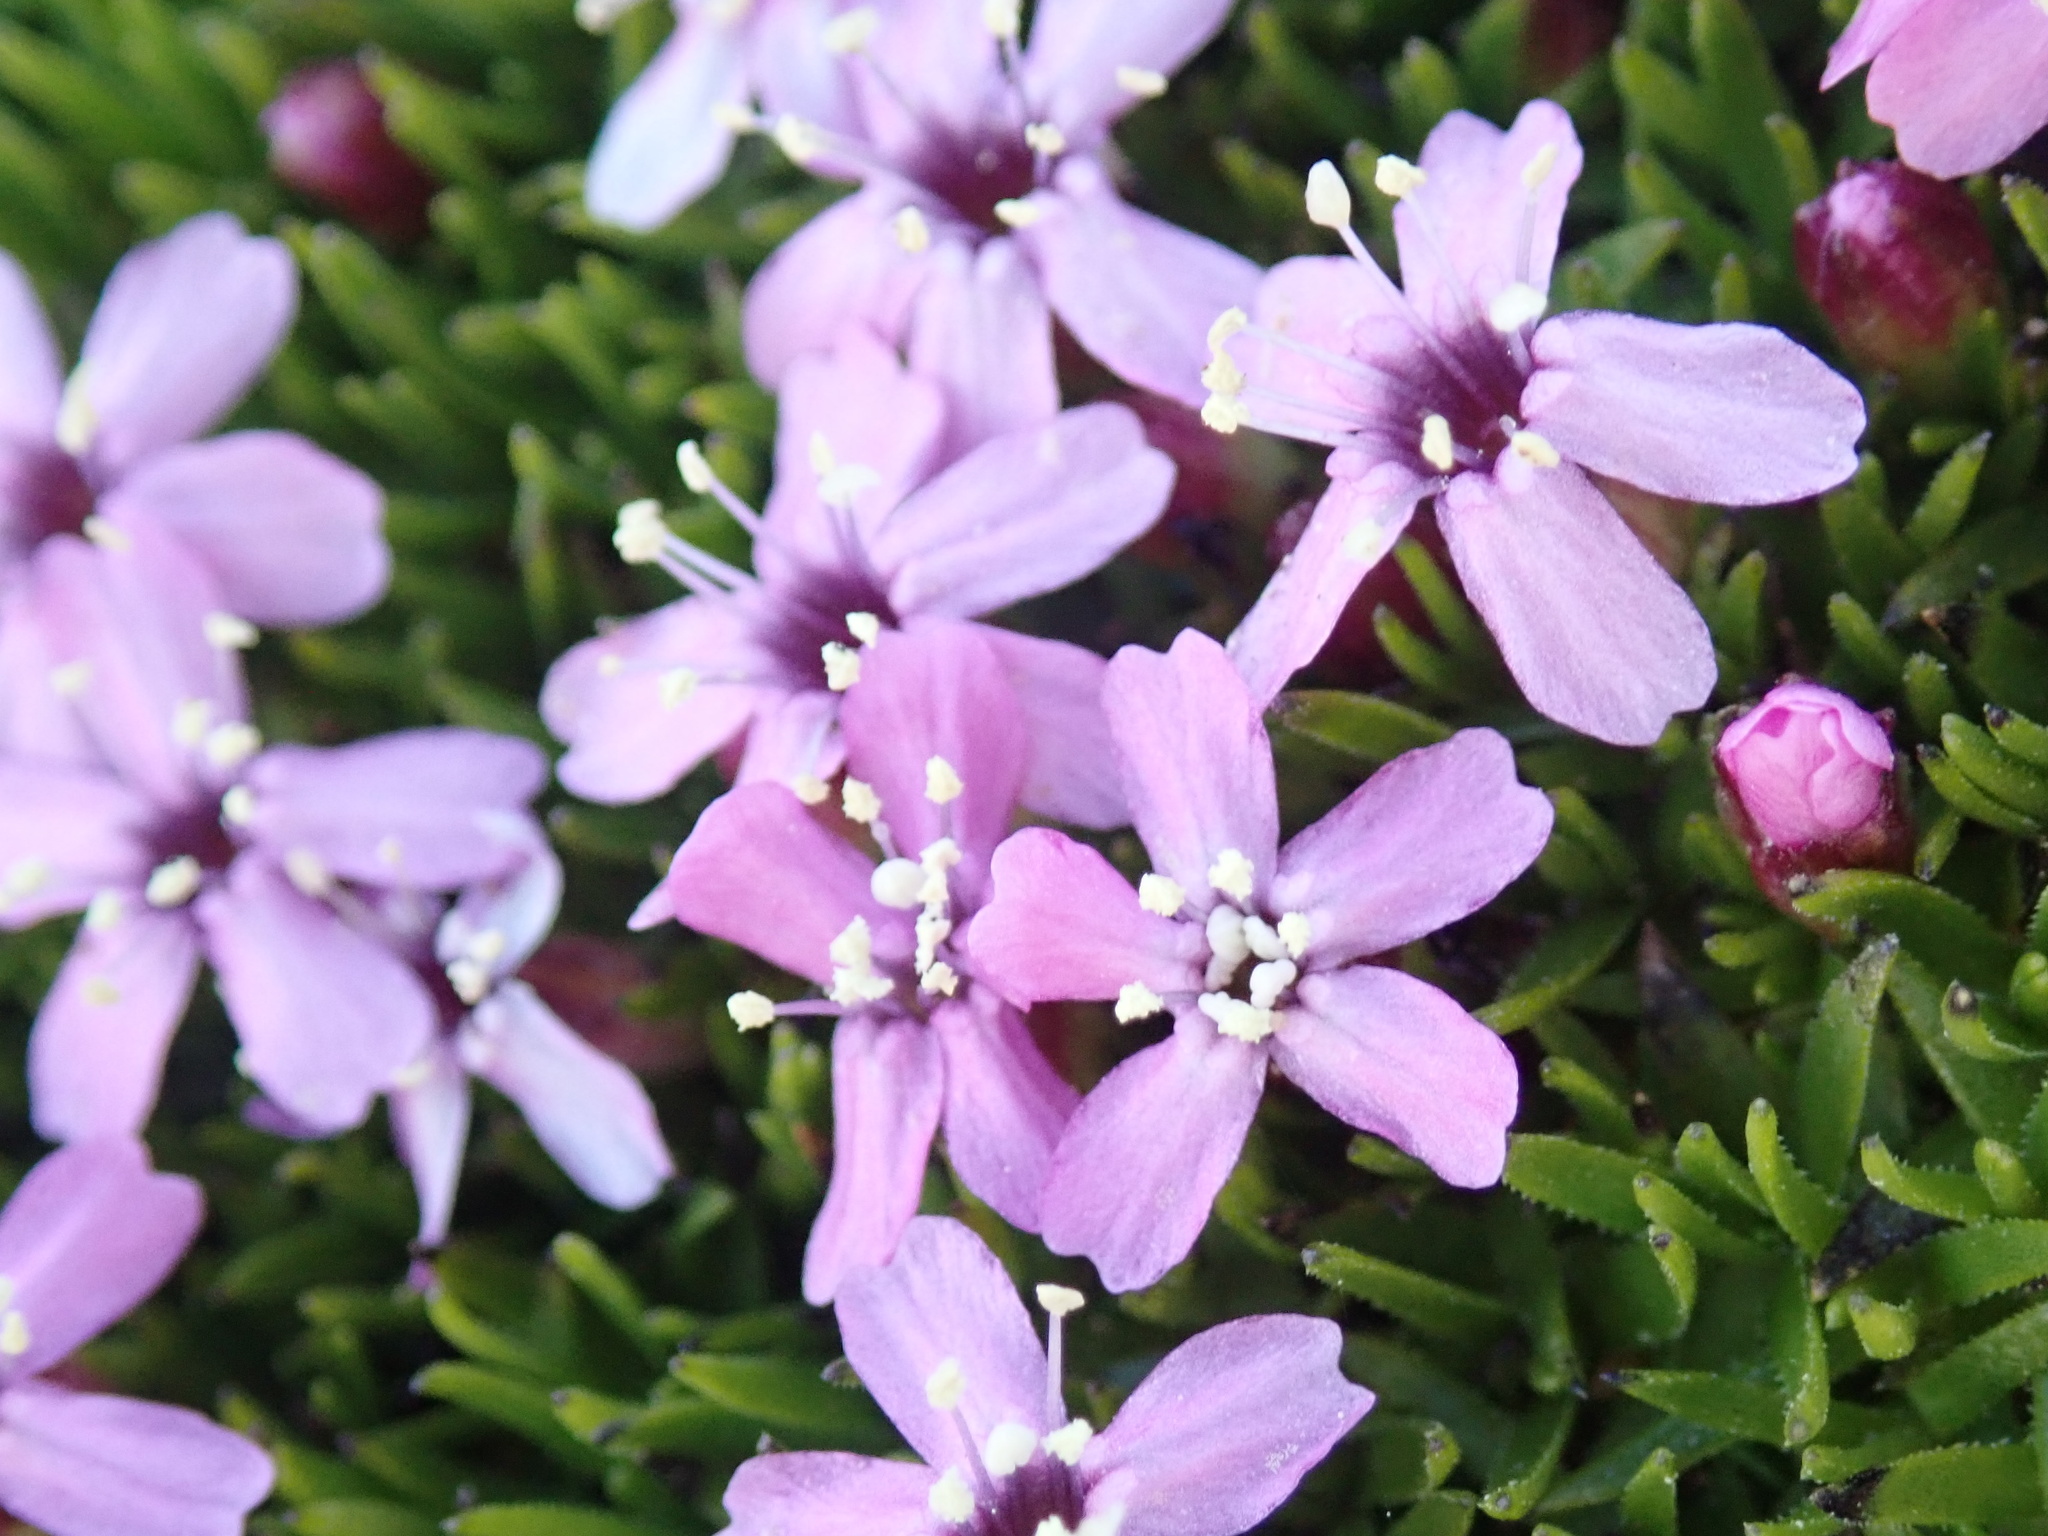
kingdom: Plantae
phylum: Tracheophyta
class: Magnoliopsida
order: Caryophyllales
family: Caryophyllaceae
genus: Silene
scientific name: Silene acaulis
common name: Moss campion
